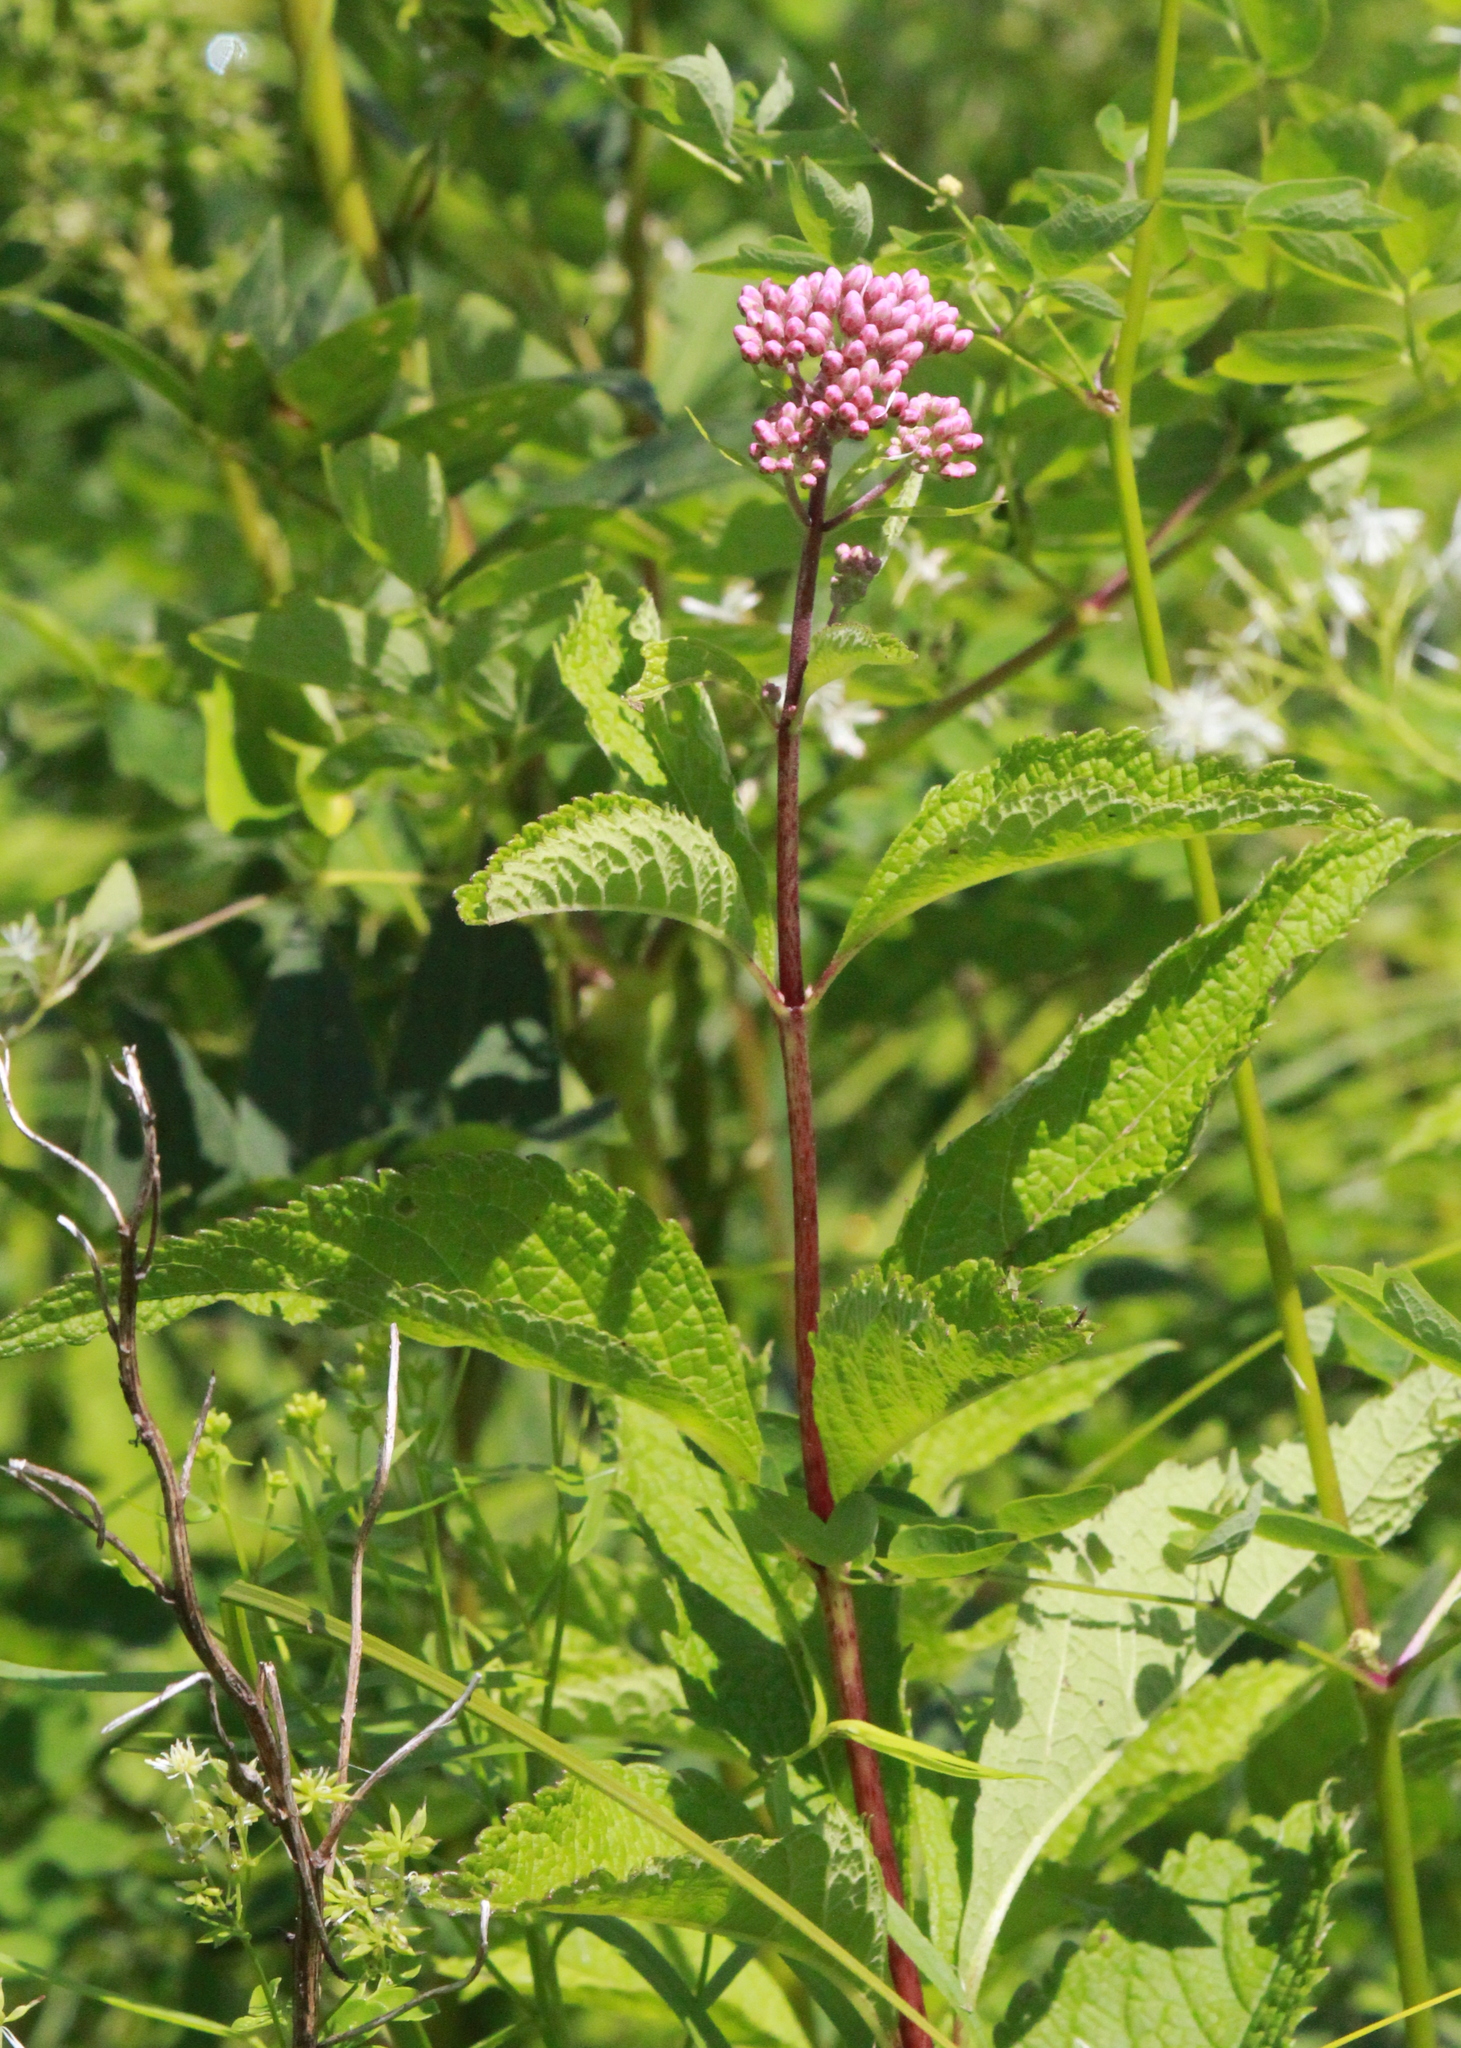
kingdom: Plantae
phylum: Tracheophyta
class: Magnoliopsida
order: Asterales
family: Asteraceae
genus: Eutrochium
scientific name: Eutrochium maculatum
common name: Spotted joe pye weed
